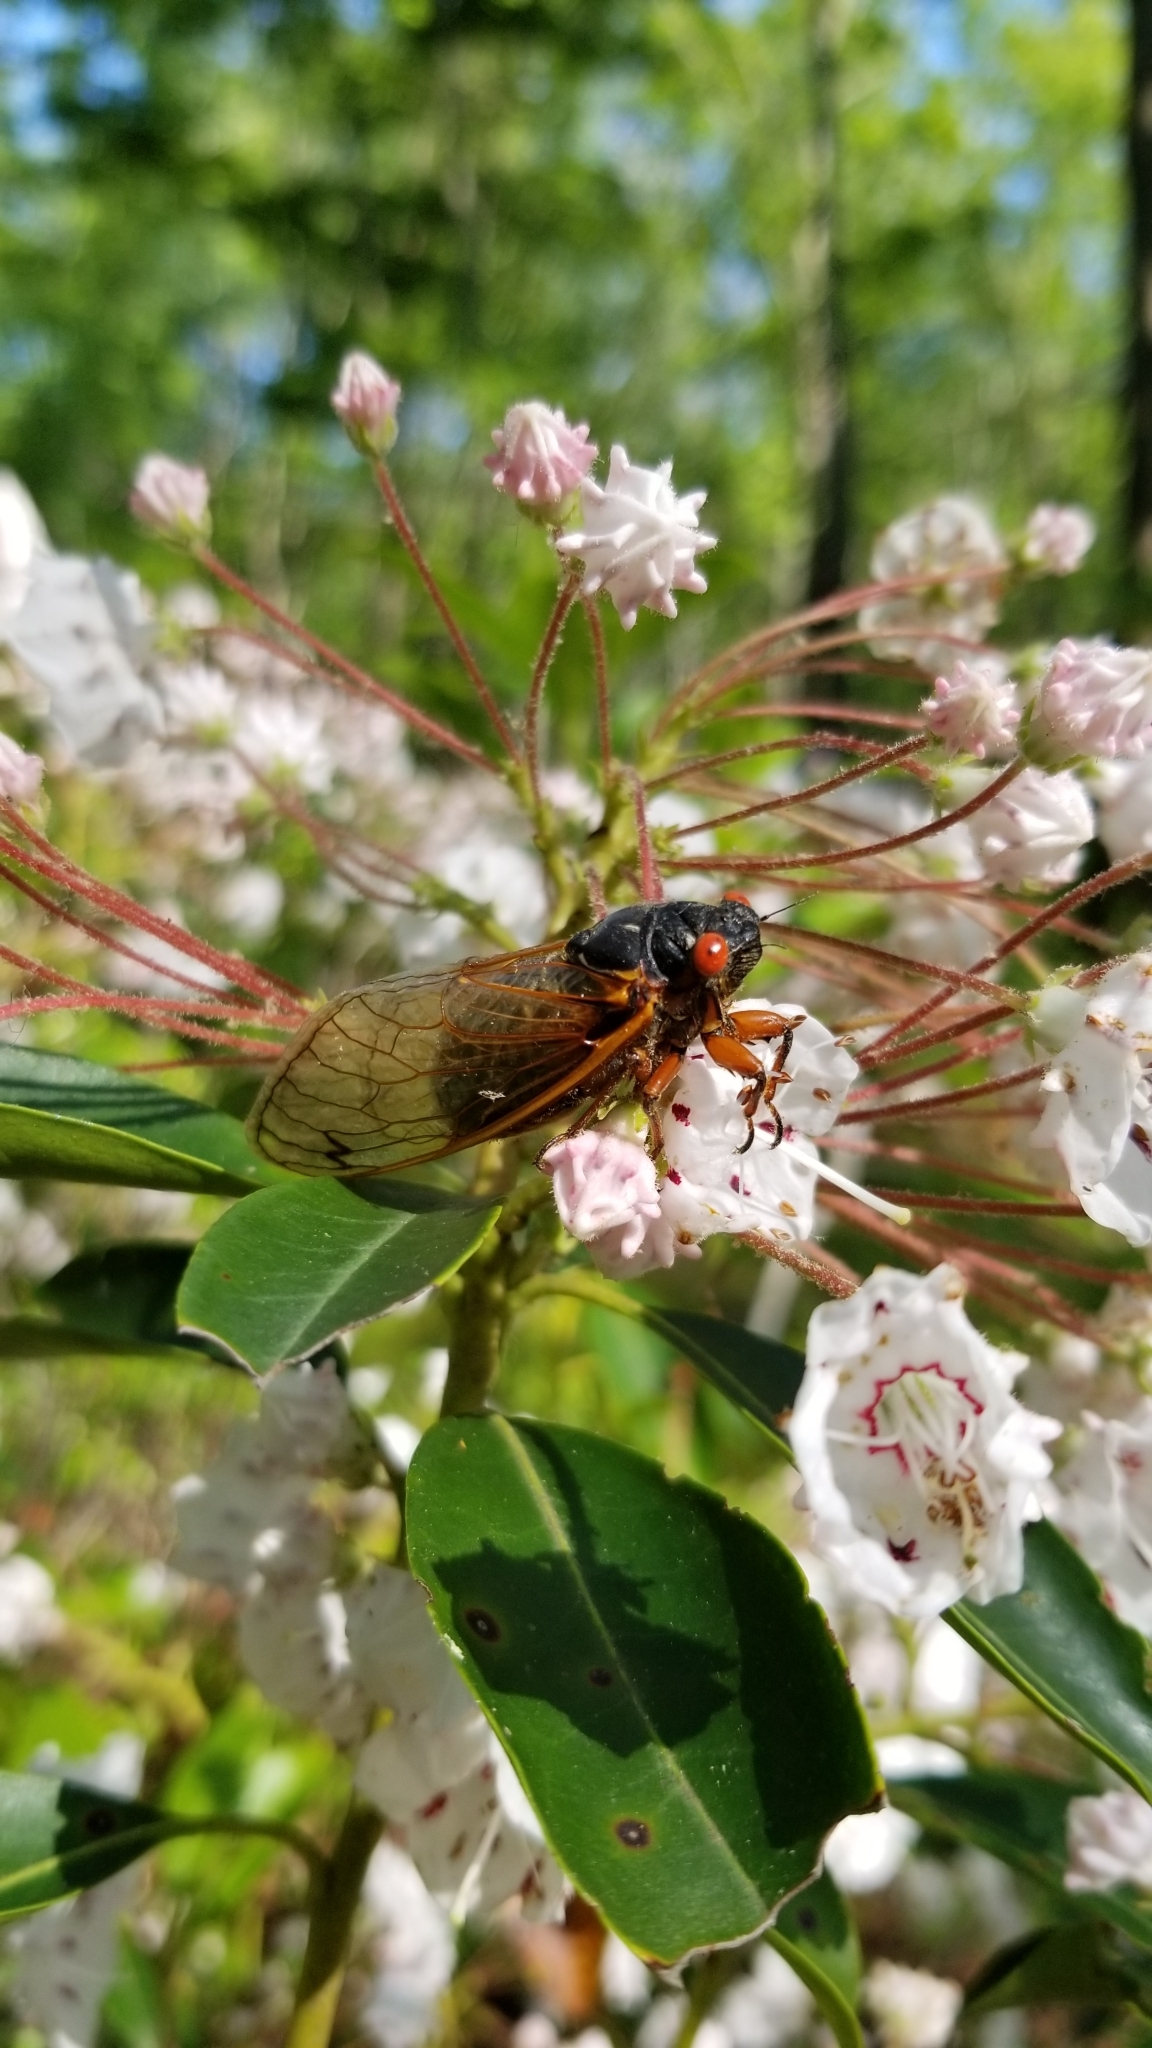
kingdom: Animalia
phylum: Arthropoda
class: Insecta
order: Hemiptera
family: Cicadidae
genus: Magicicada
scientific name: Magicicada septendecim
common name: Periodical cicada
